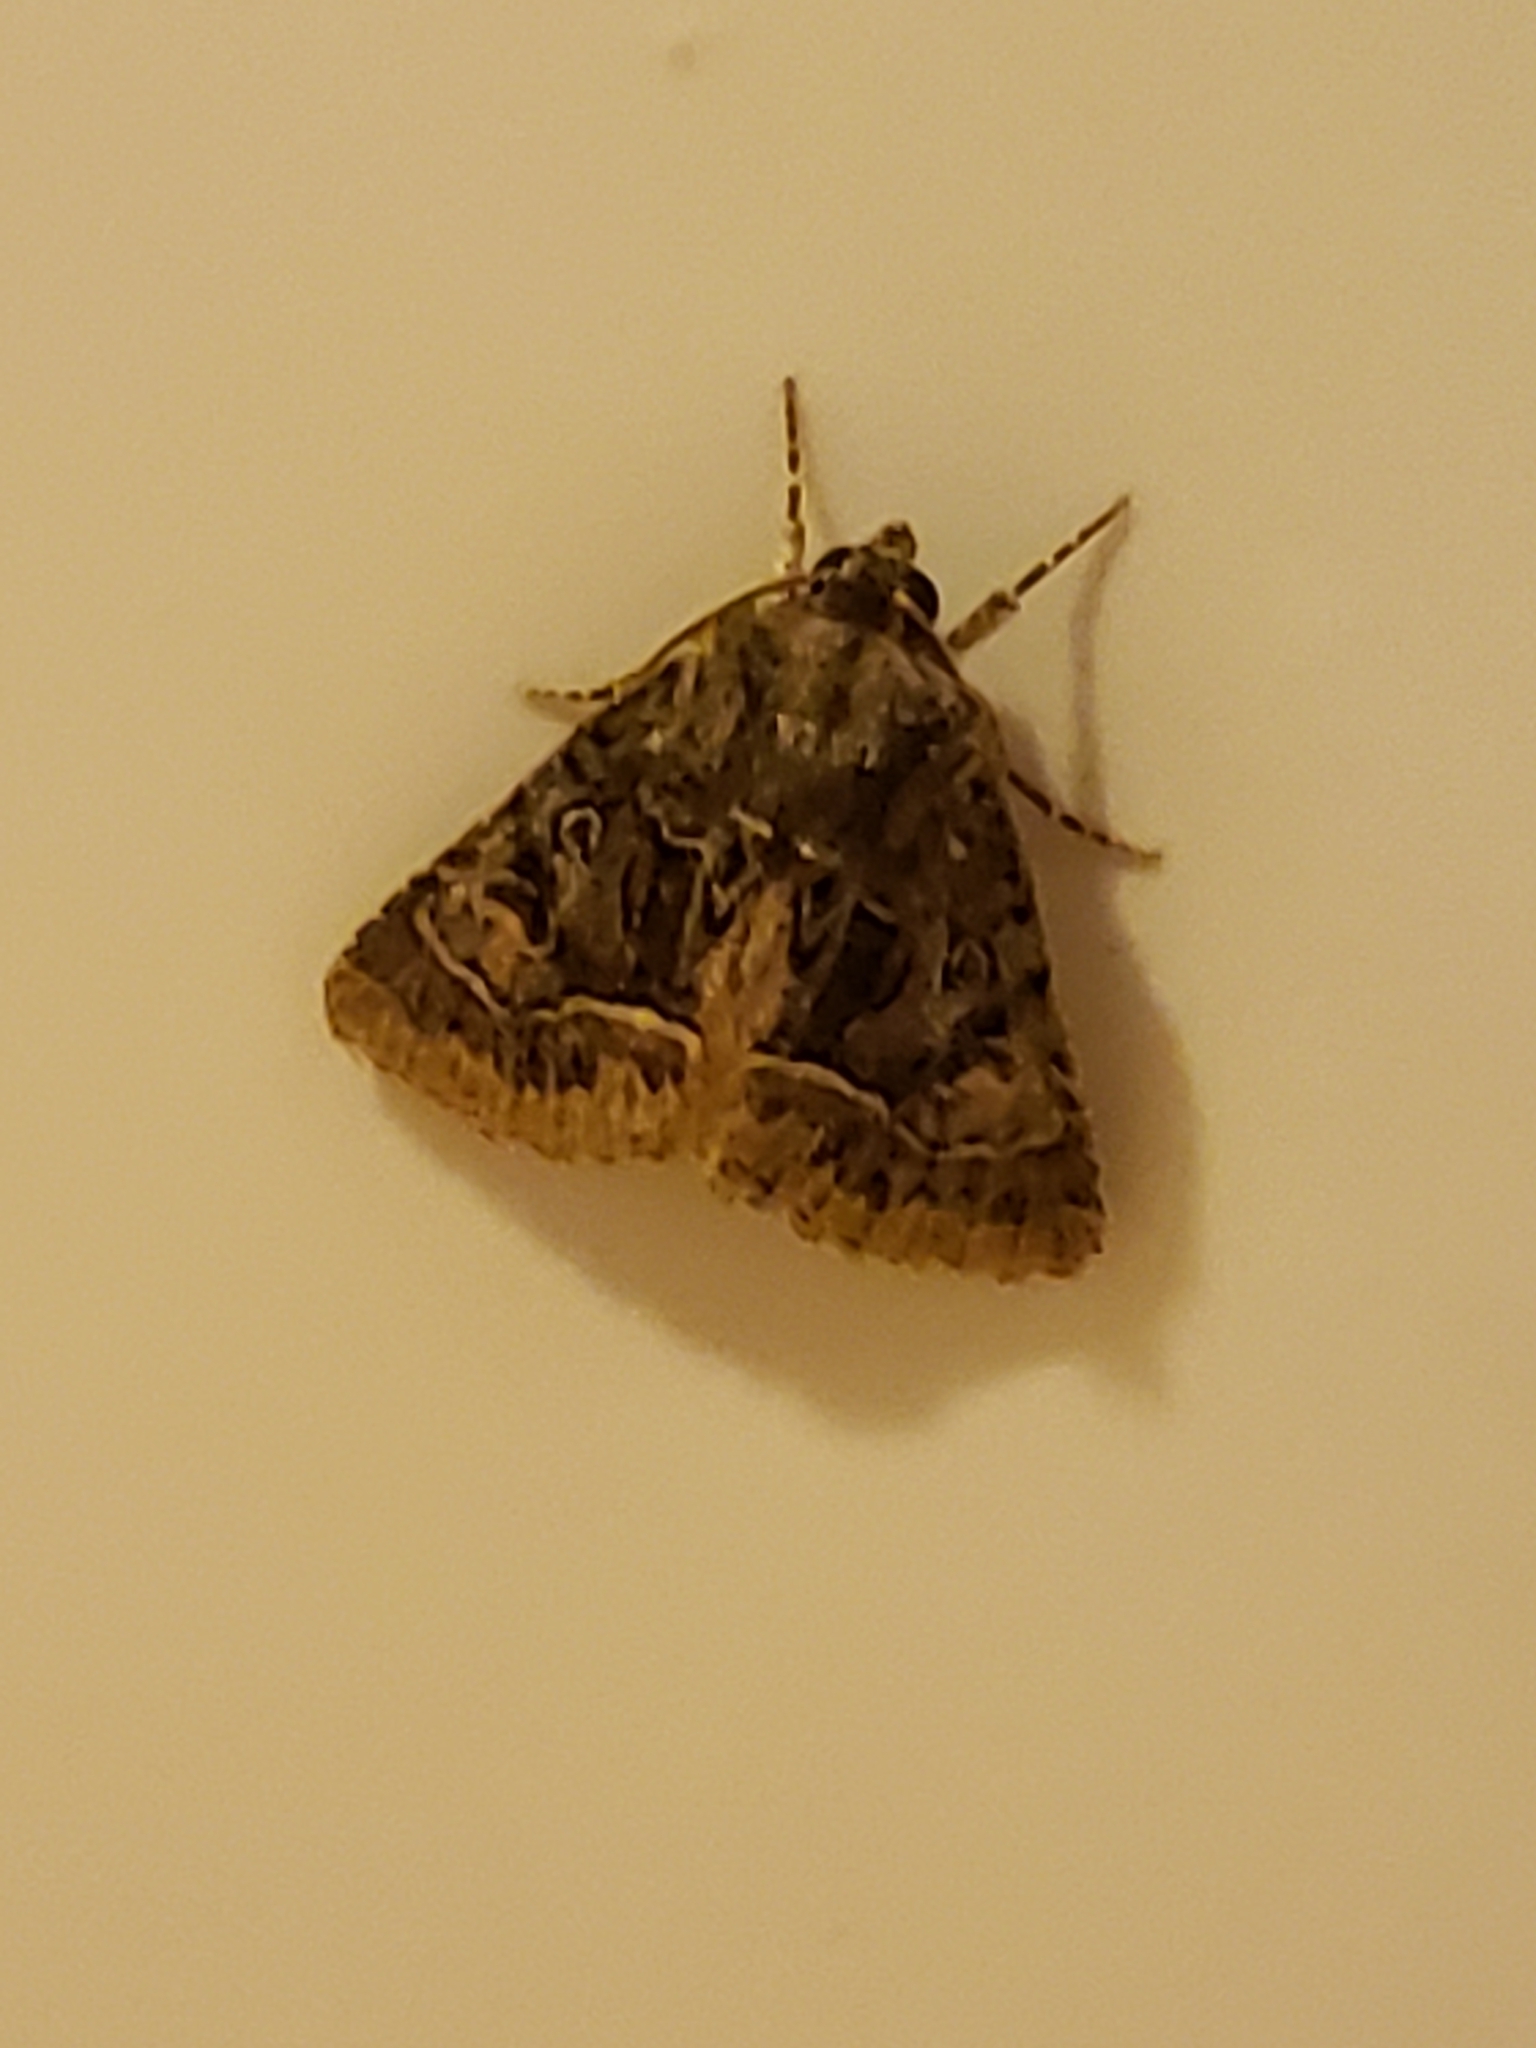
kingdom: Animalia
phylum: Arthropoda
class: Insecta
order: Lepidoptera
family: Noctuidae
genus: Thalpophila
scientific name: Thalpophila matura
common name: Straw underwing
